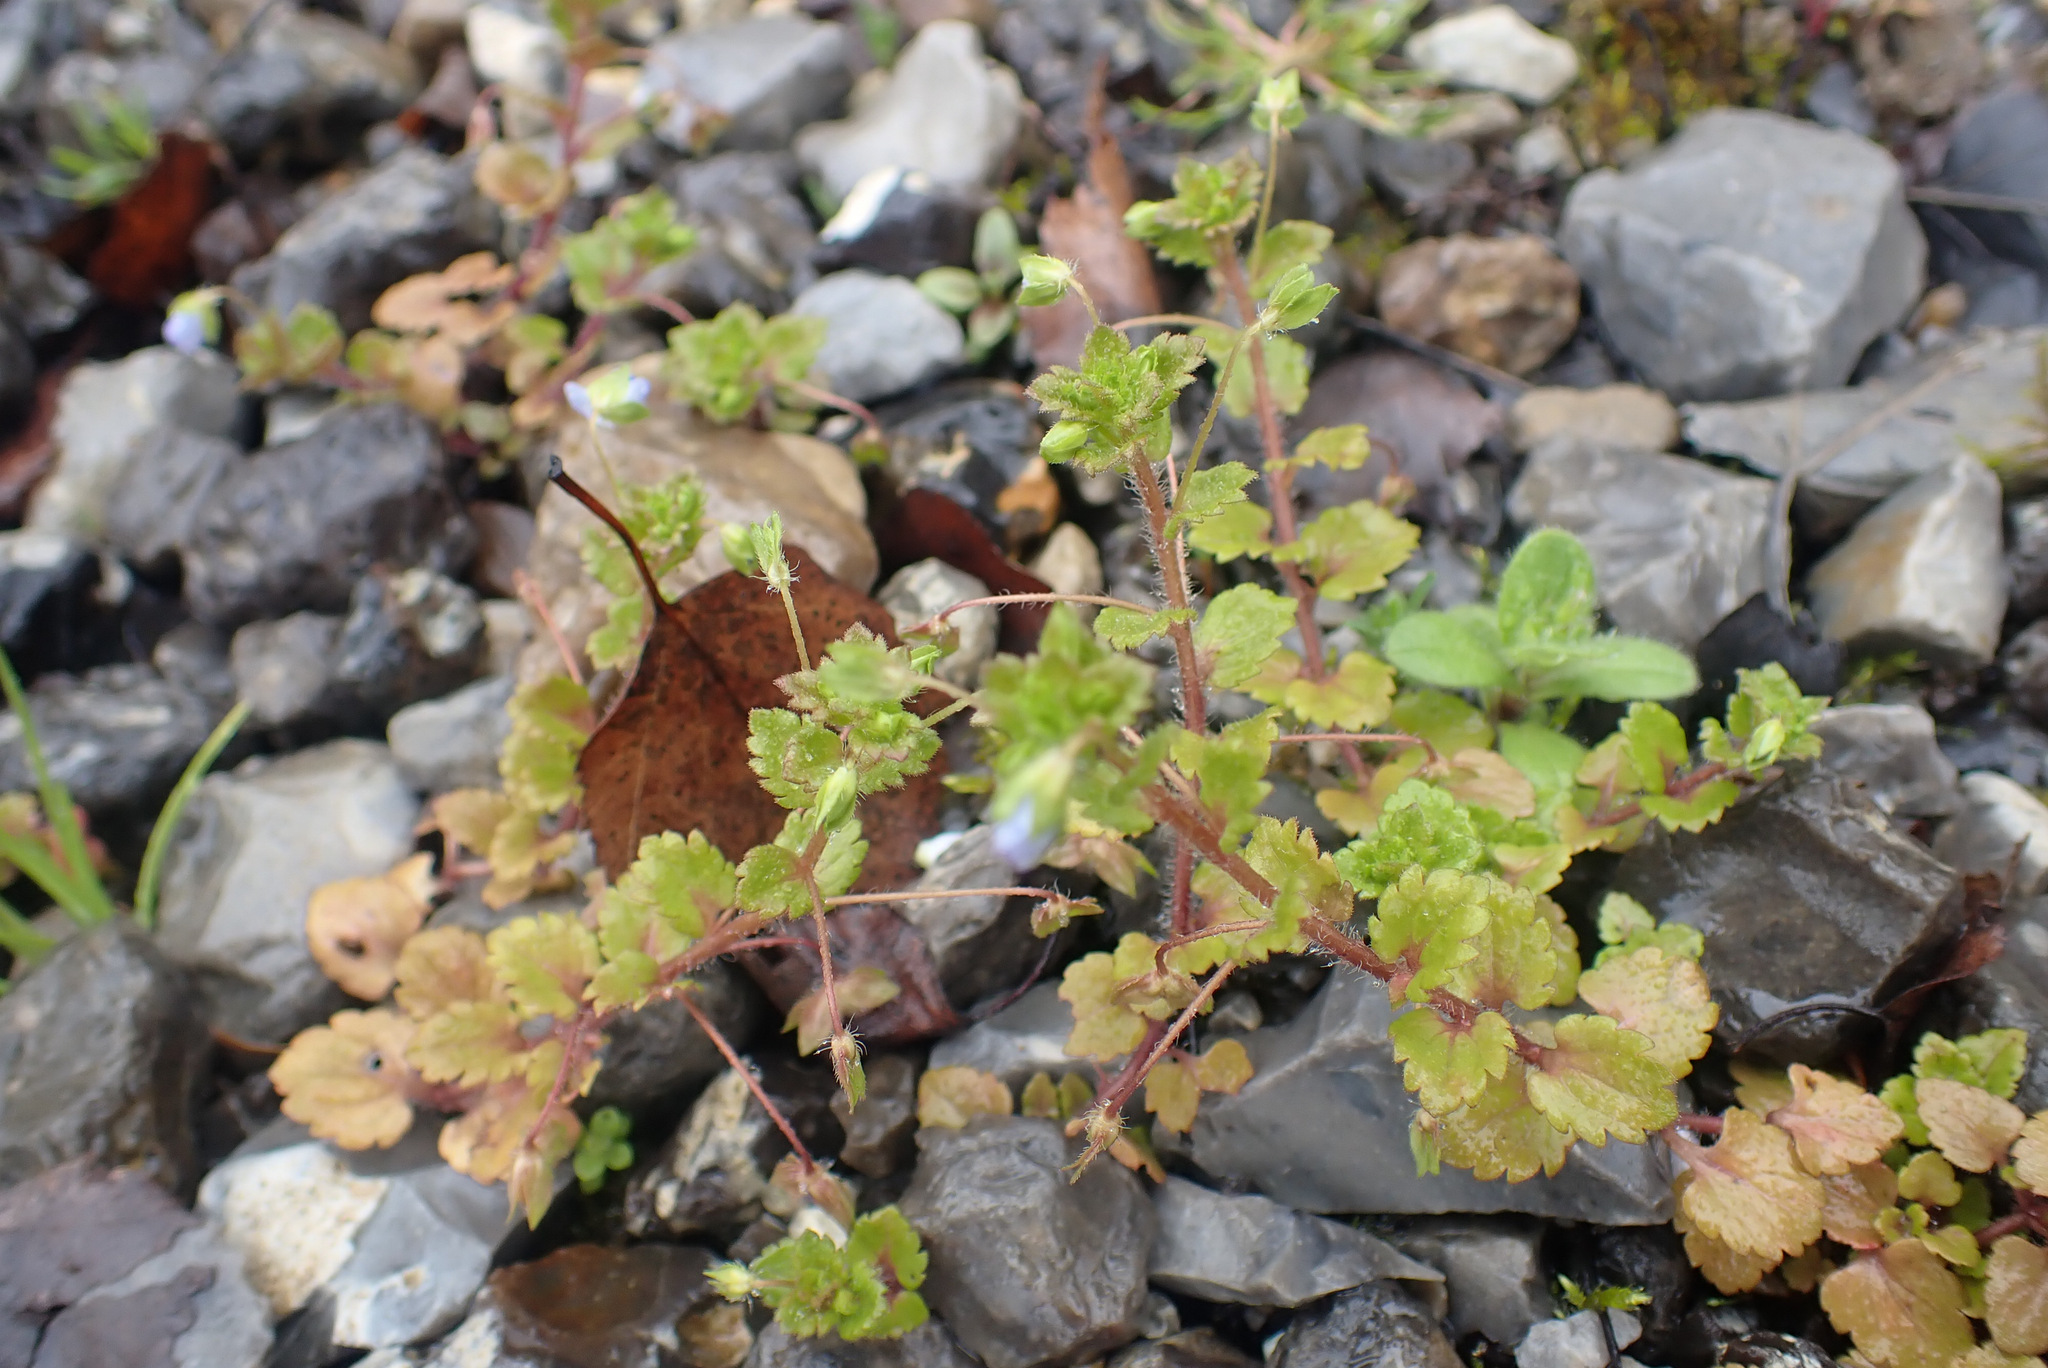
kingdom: Plantae
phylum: Tracheophyta
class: Magnoliopsida
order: Lamiales
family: Plantaginaceae
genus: Veronica
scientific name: Veronica persica
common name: Common field-speedwell
